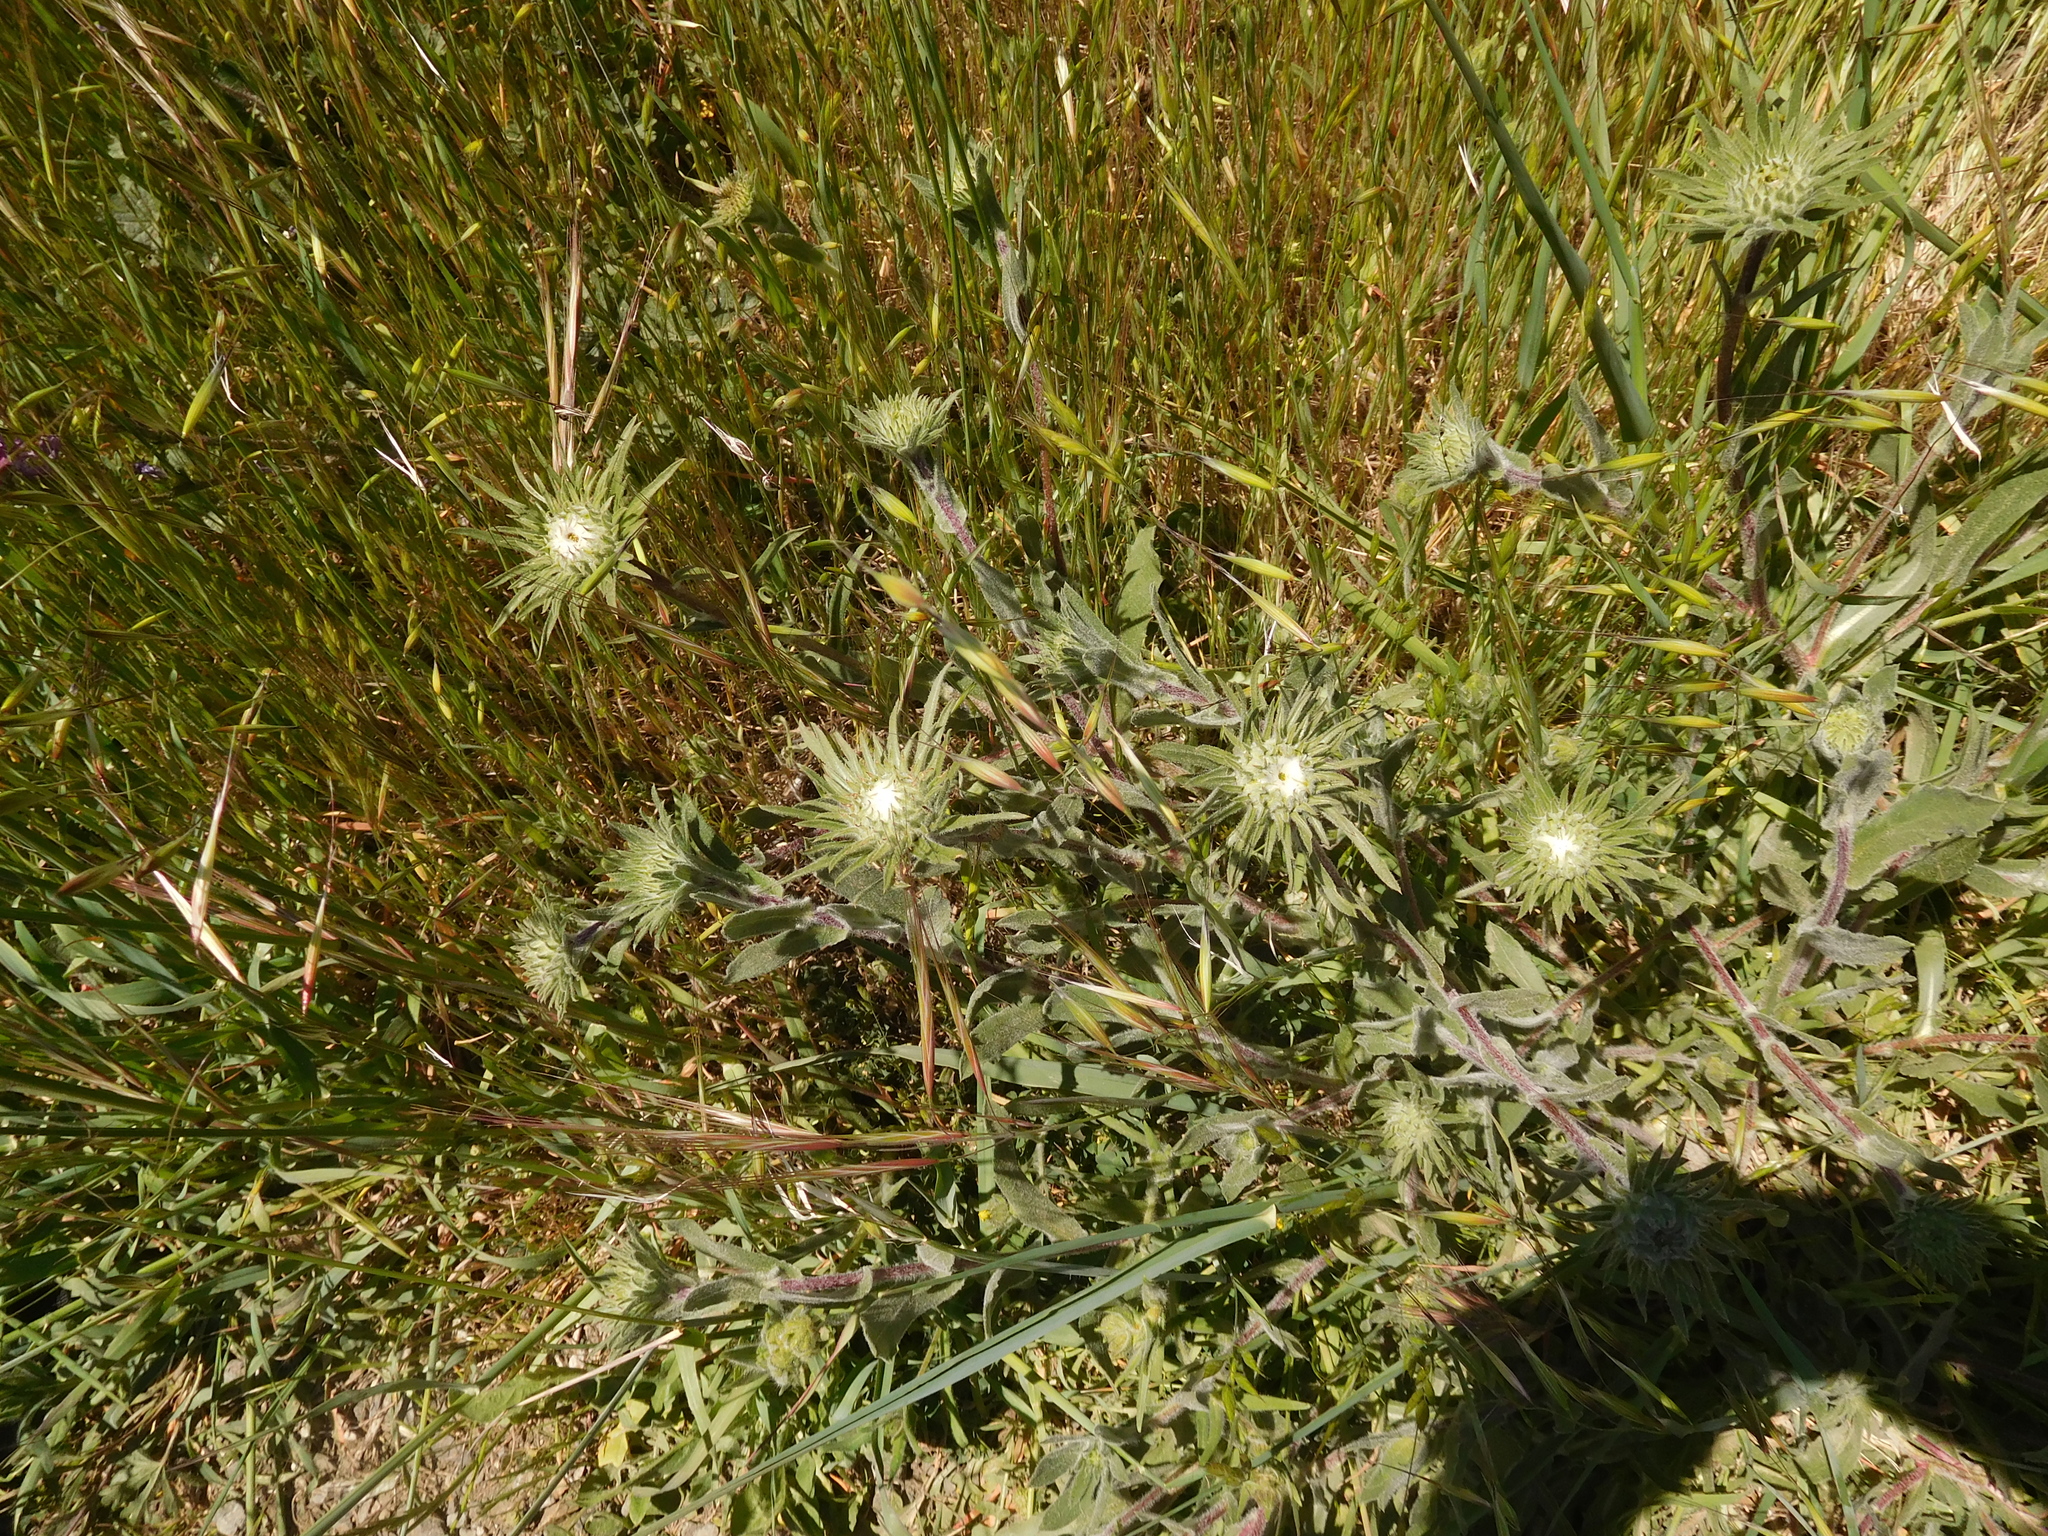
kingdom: Plantae
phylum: Tracheophyta
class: Magnoliopsida
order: Asterales
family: Asteraceae
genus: Grindelia
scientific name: Grindelia hirsutula
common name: Hairy gumweed
